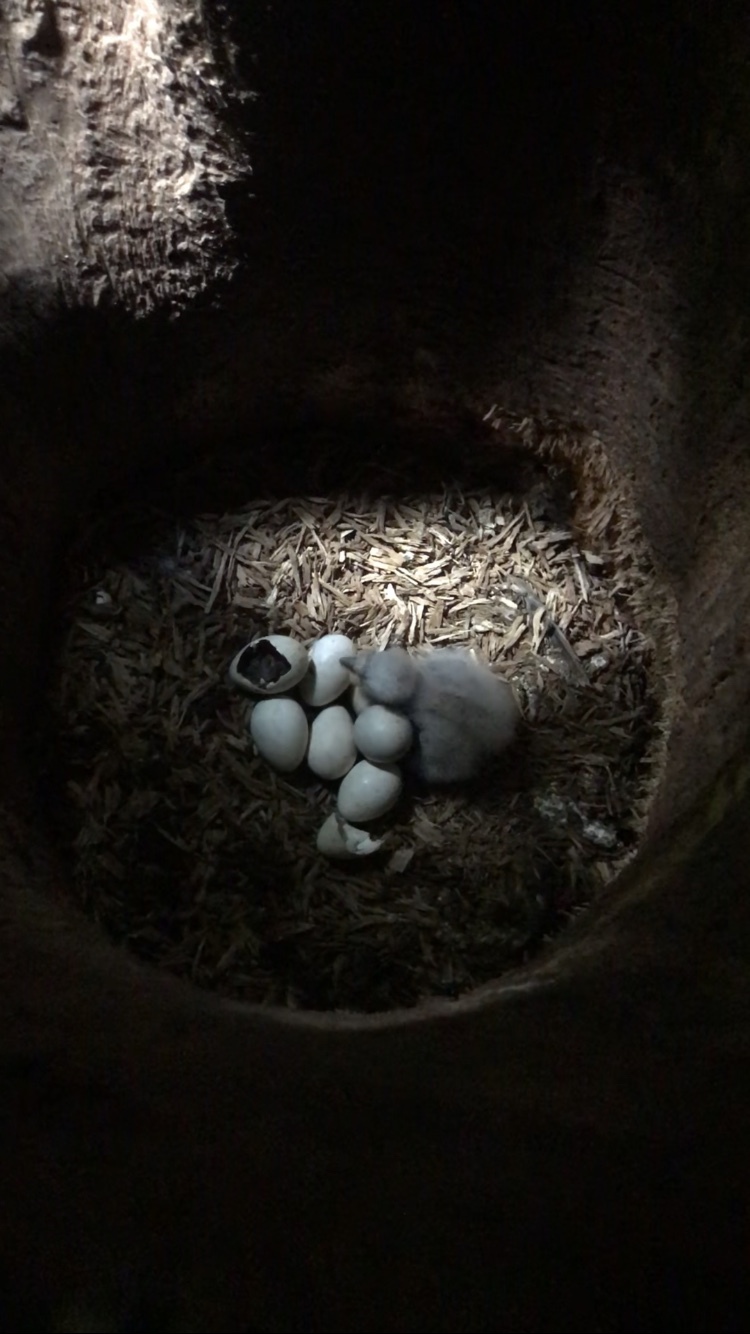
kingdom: Animalia
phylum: Chordata
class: Aves
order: Psittaciformes
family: Psittacidae
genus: Nestor
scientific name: Nestor meridionalis
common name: New zealand kaka
